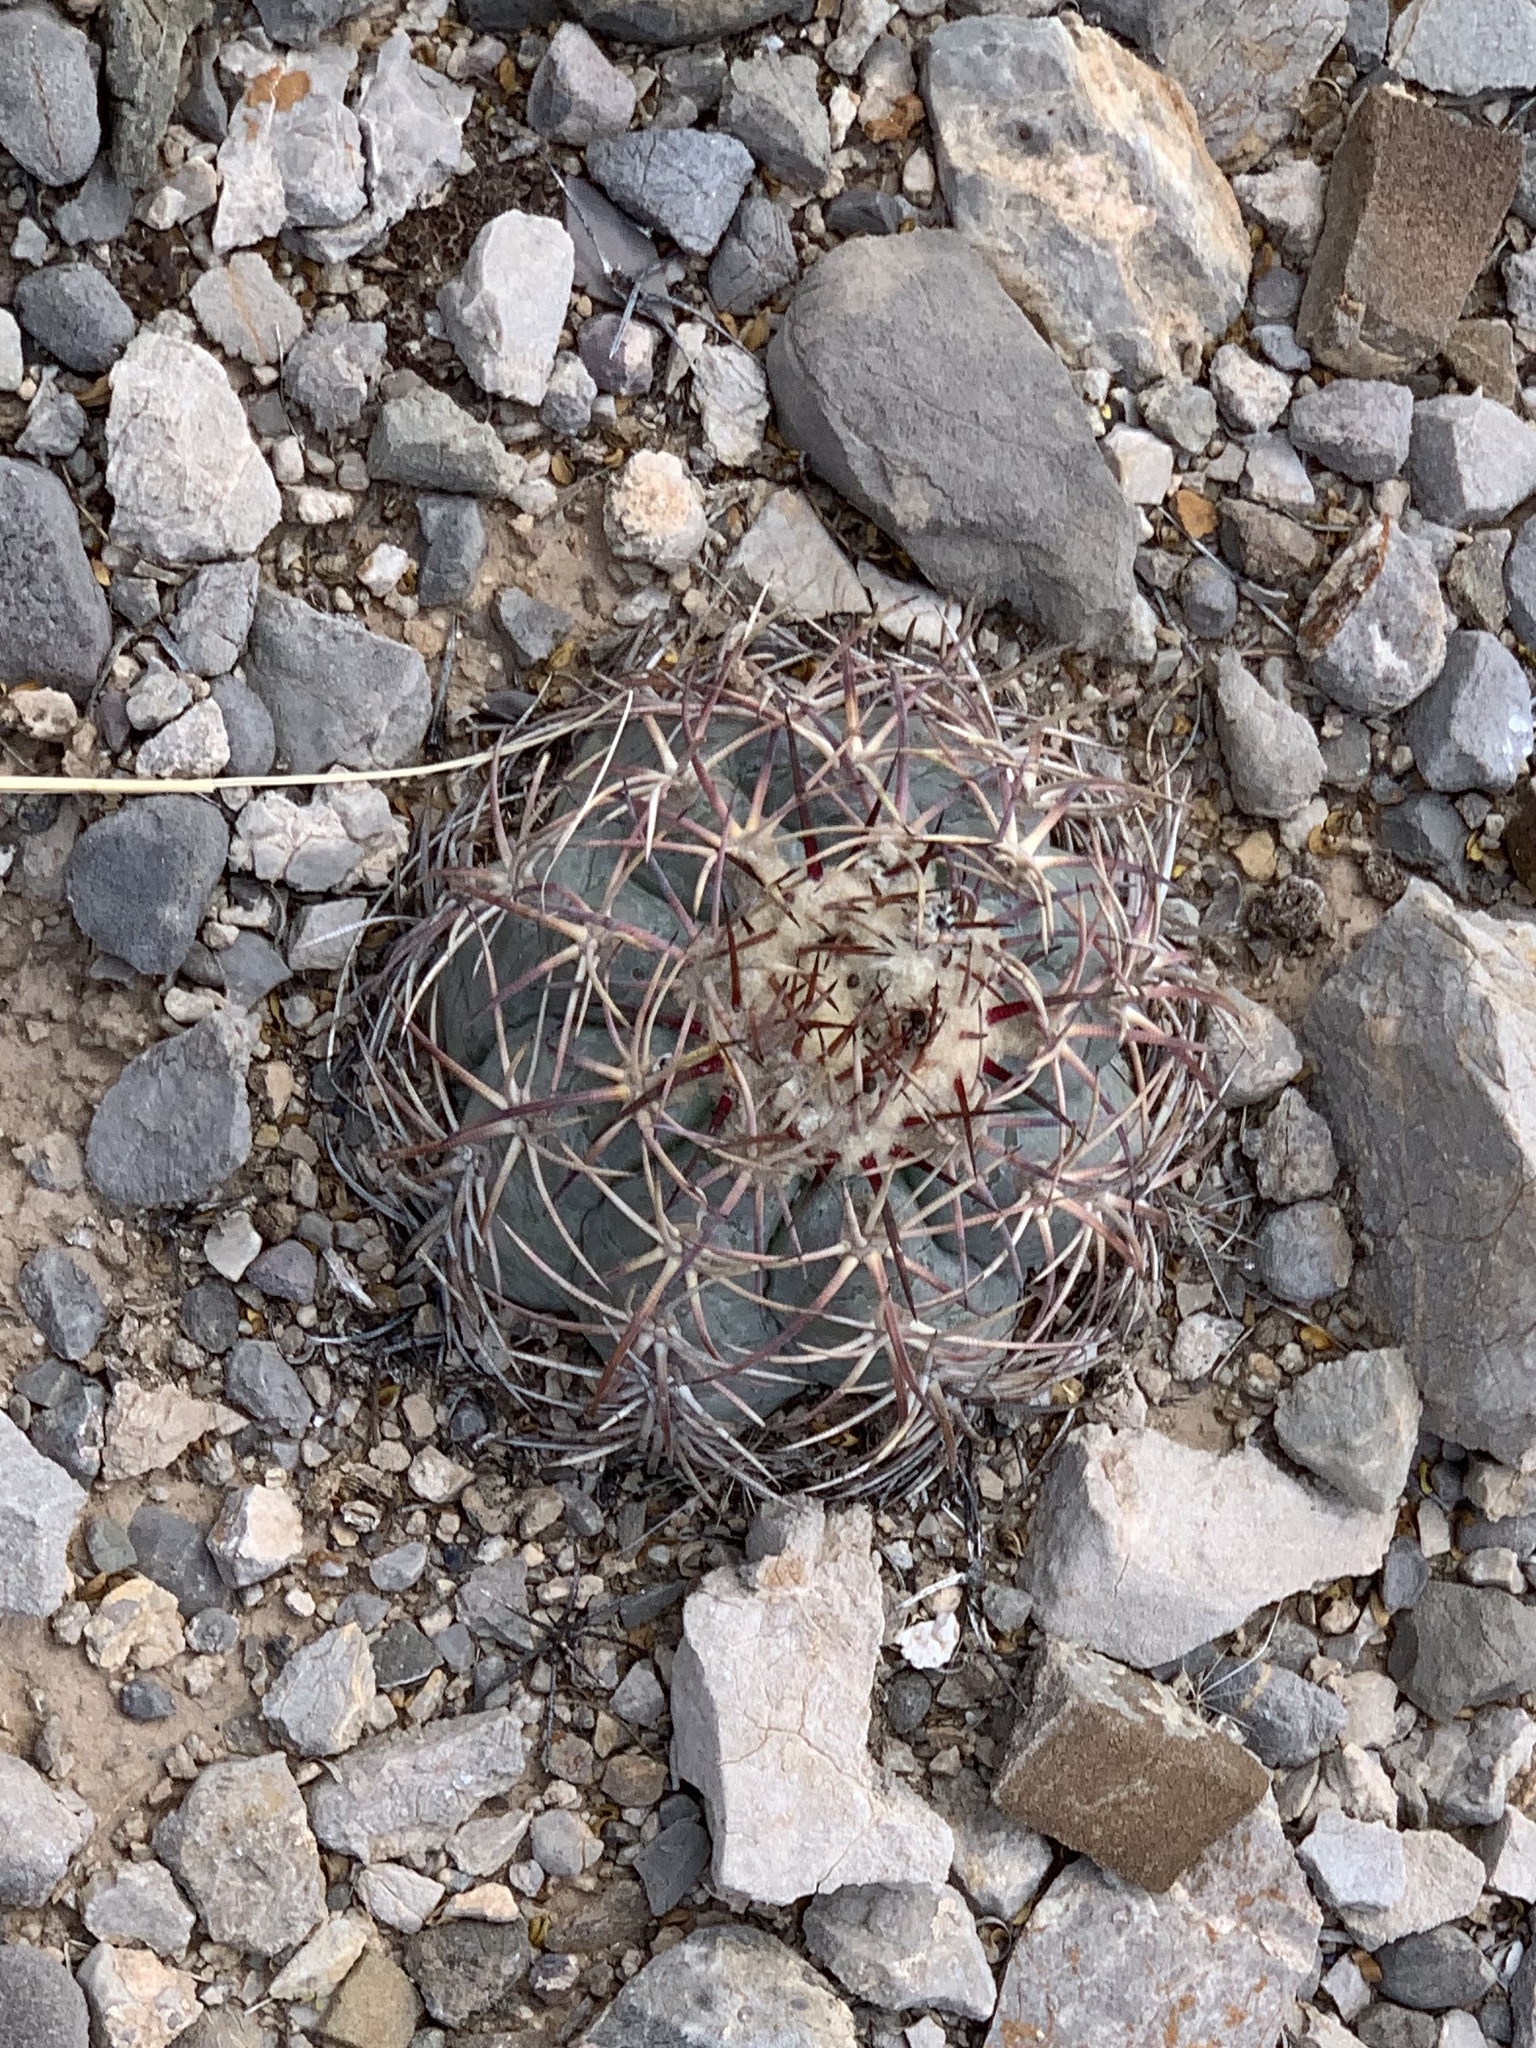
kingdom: Plantae
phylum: Tracheophyta
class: Magnoliopsida
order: Caryophyllales
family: Cactaceae
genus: Echinocactus
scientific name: Echinocactus horizonthalonius
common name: Devilshead
